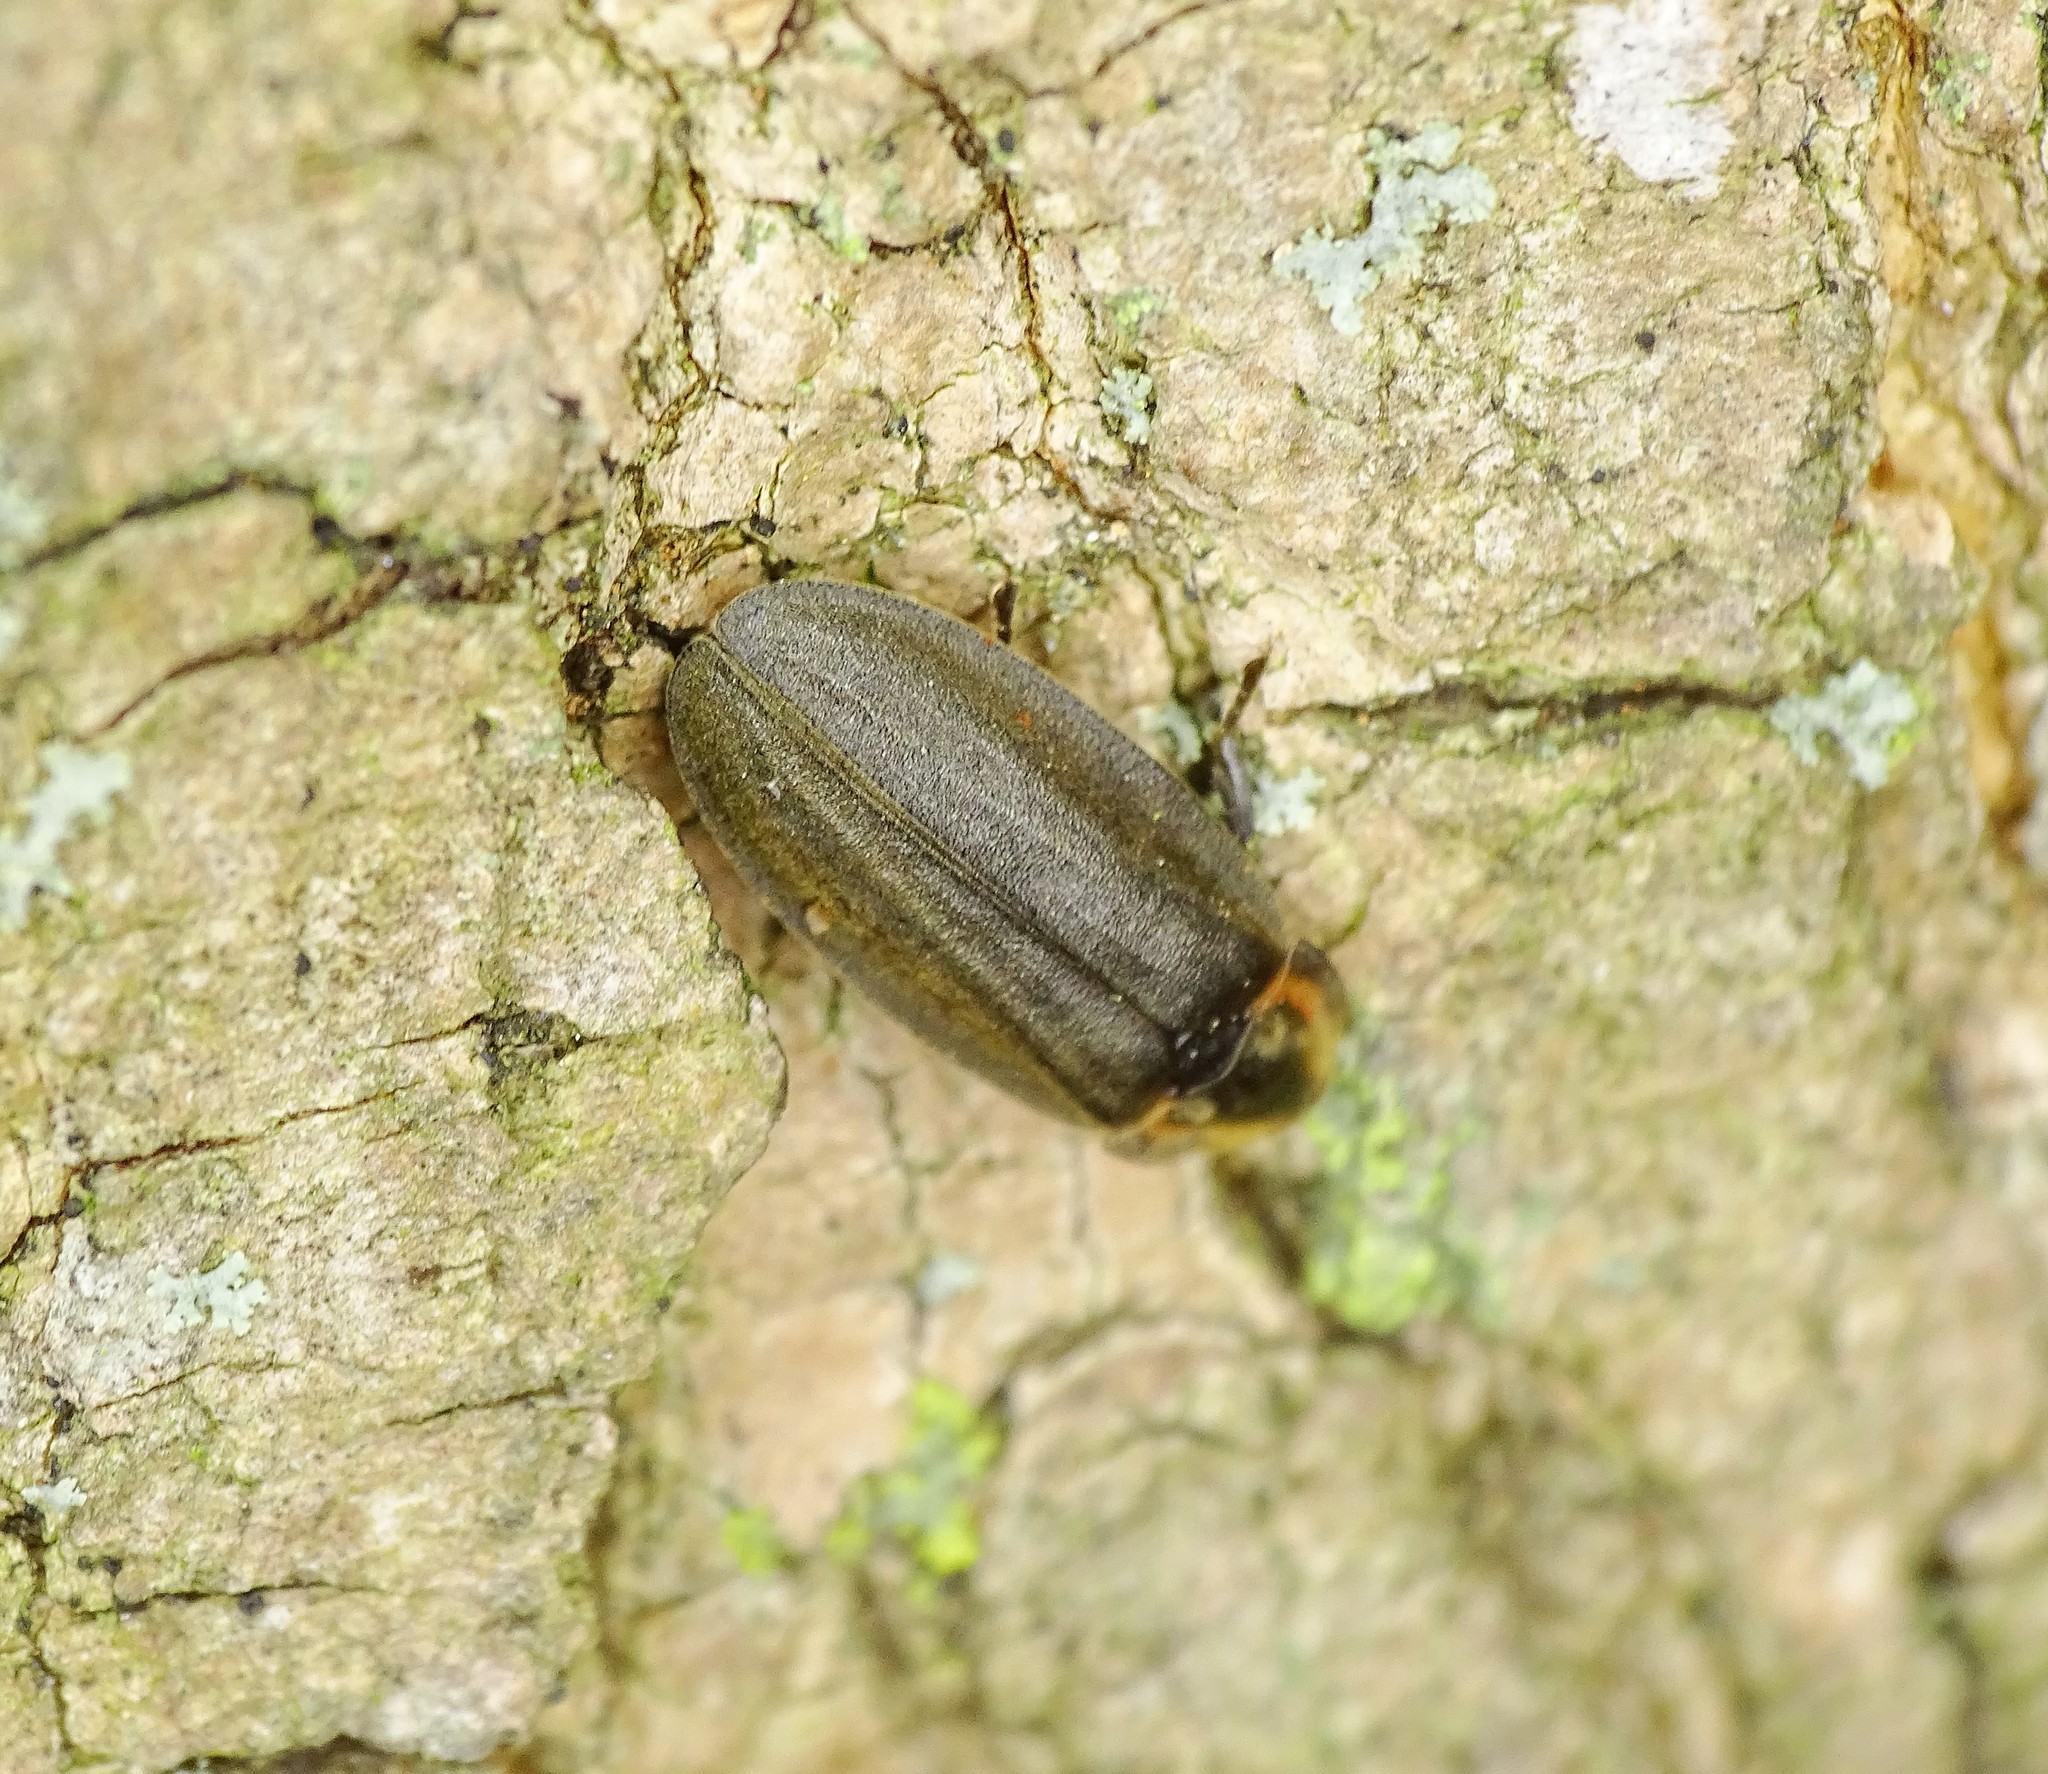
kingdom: Animalia
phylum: Arthropoda
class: Insecta
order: Coleoptera
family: Lampyridae
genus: Photinus
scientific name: Photinus corrusca
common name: Winter firefly
